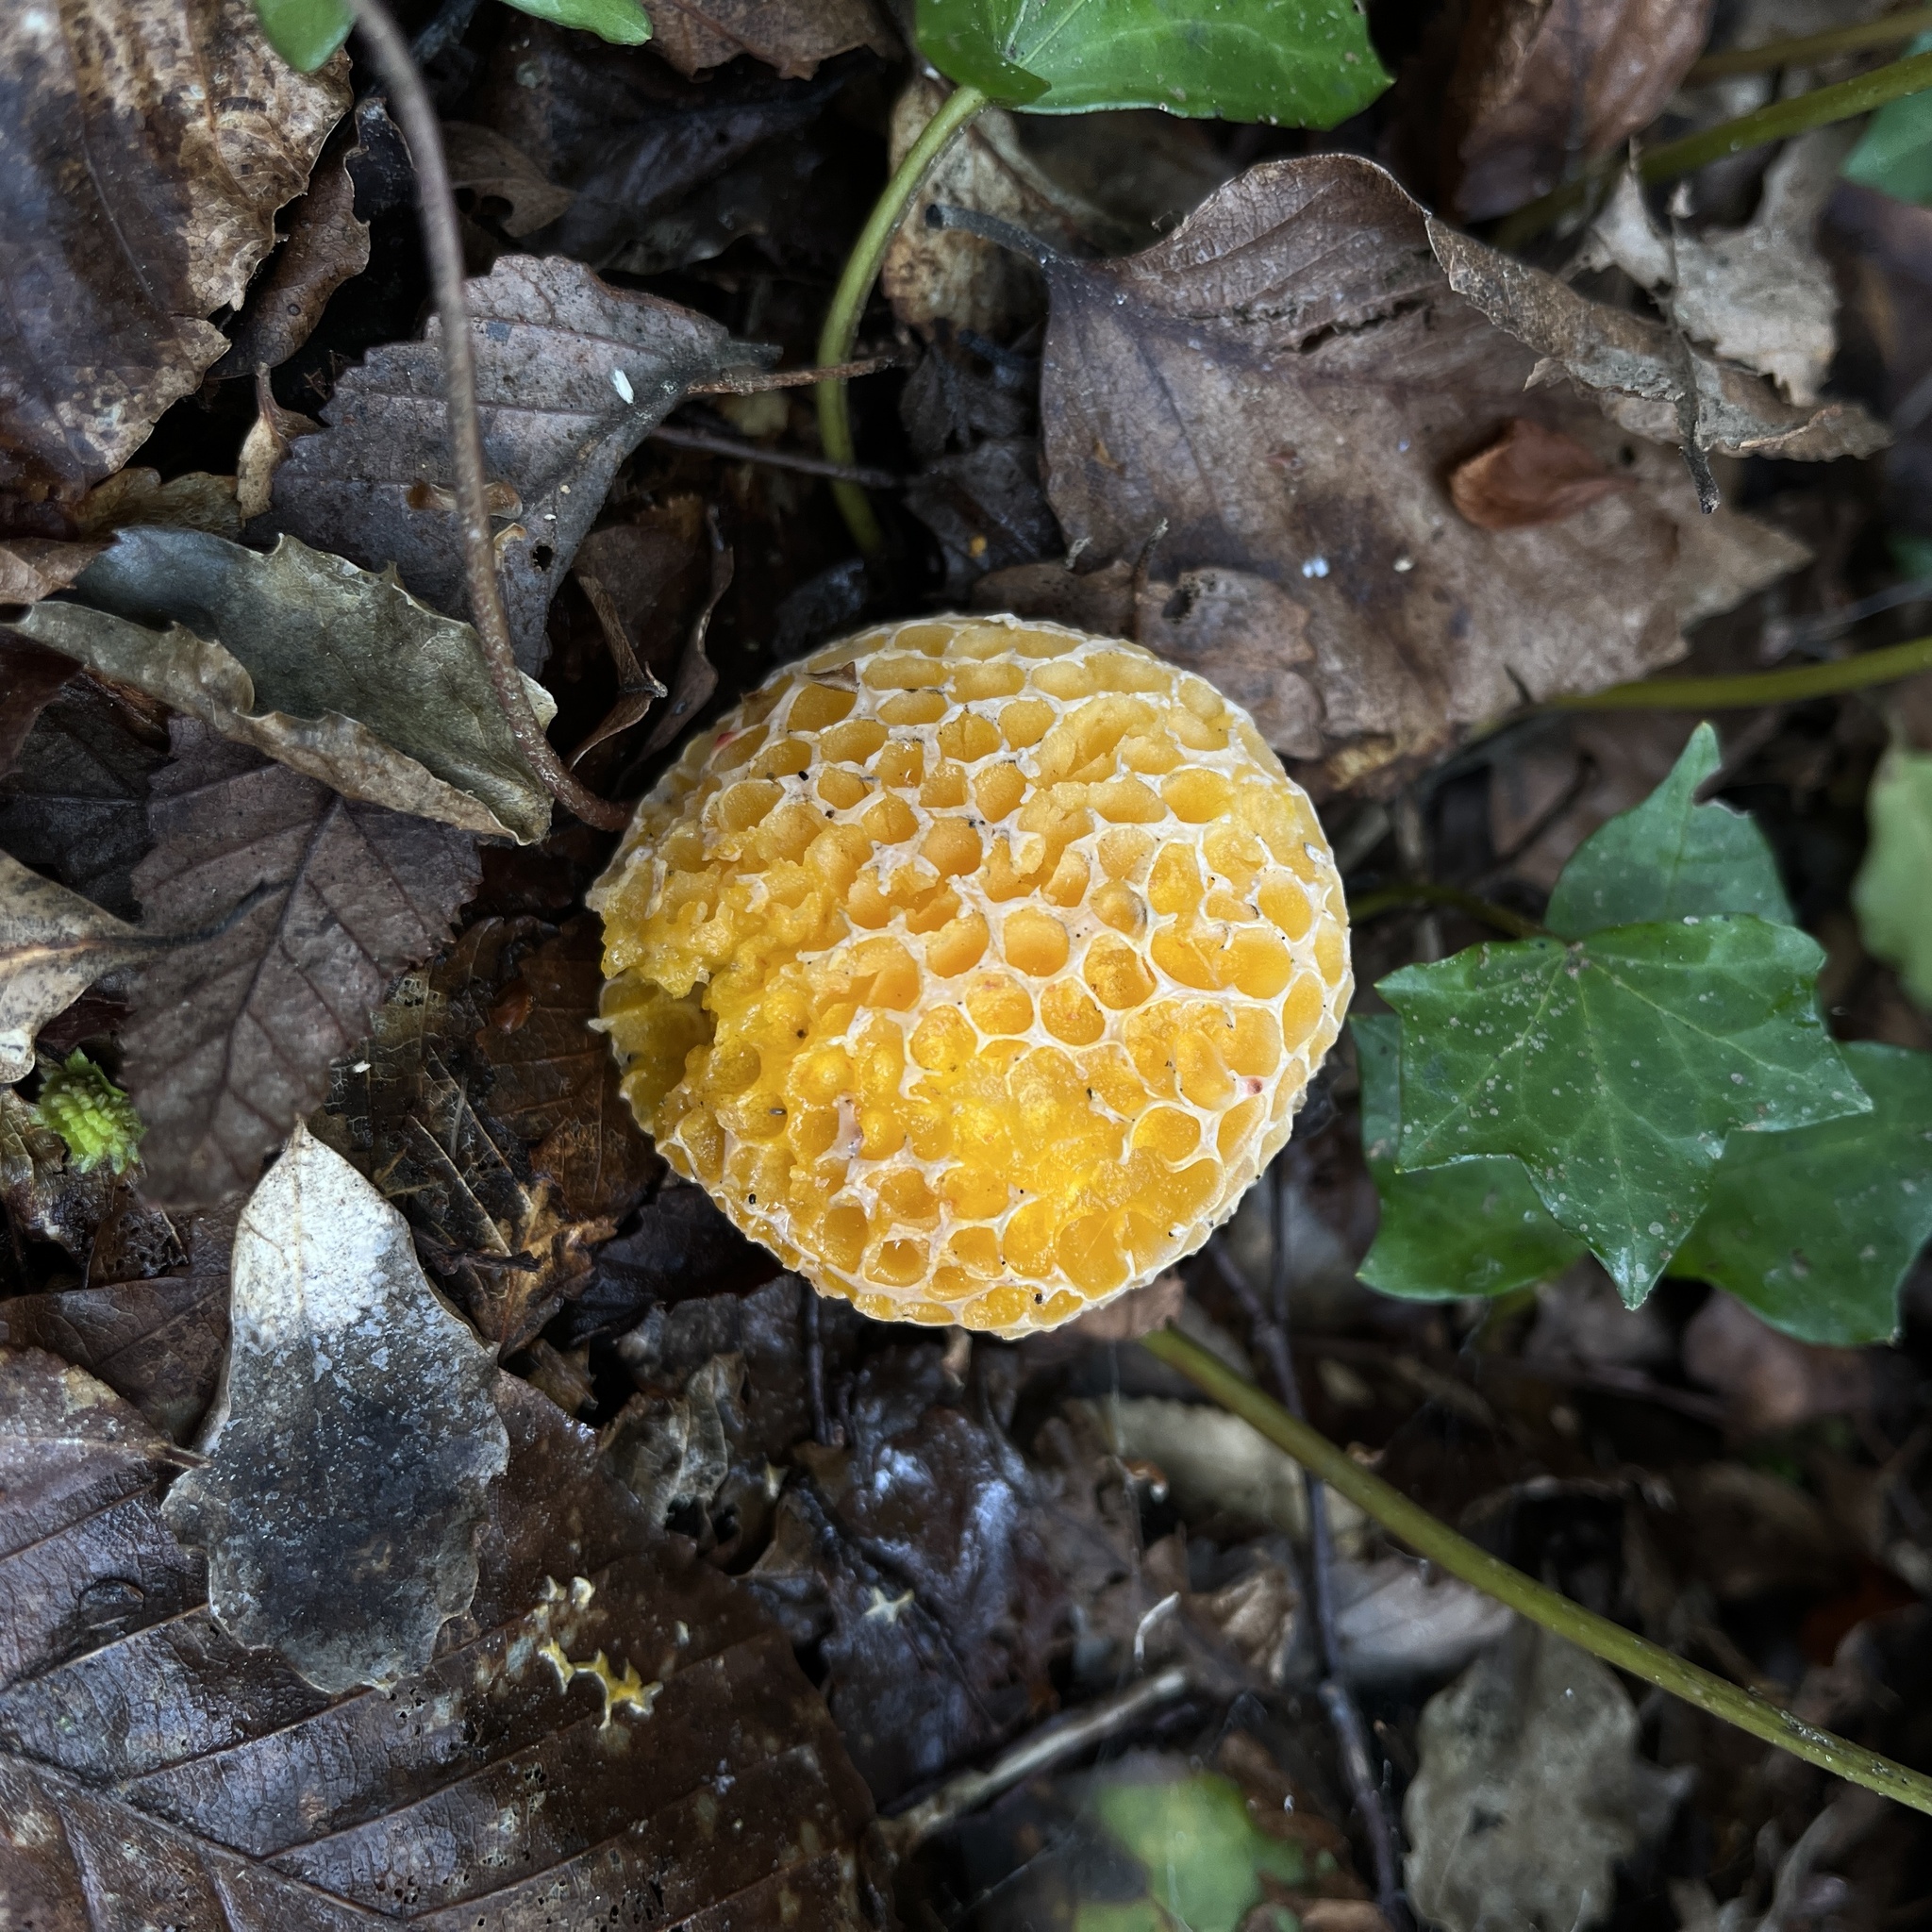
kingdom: Fungi
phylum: Ascomycota
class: Leotiomycetes
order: Cyttariales
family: Cyttariaceae
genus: Cyttaria
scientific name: Cyttaria espinosae
